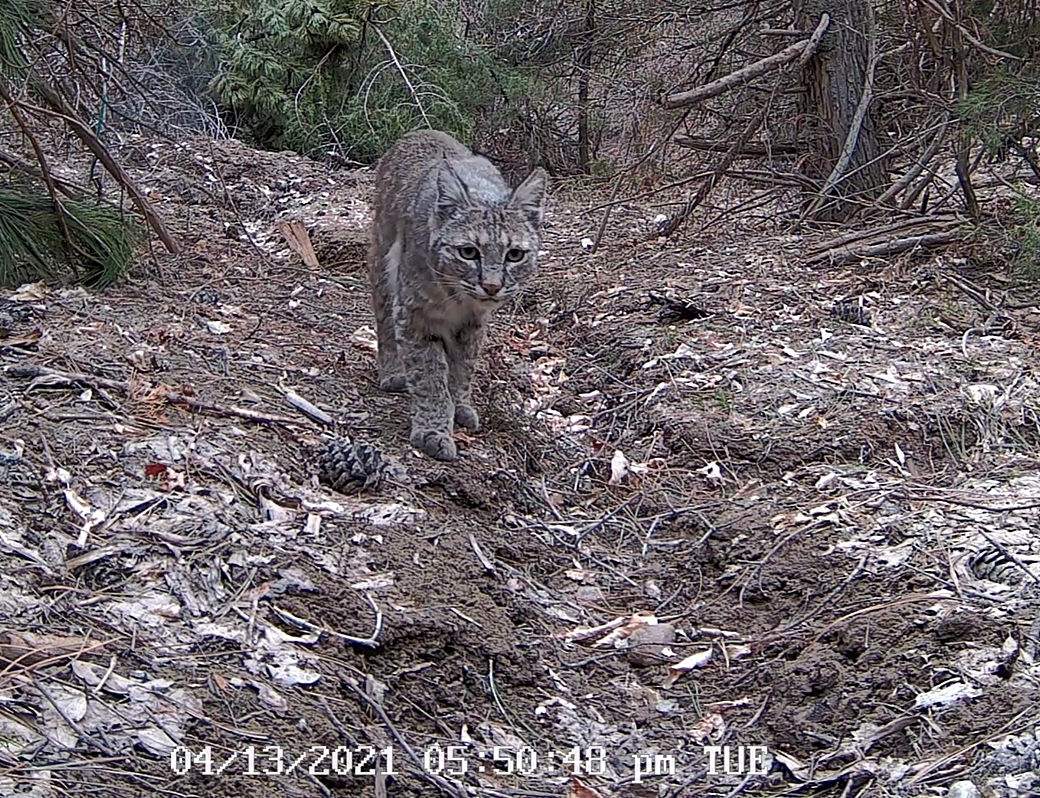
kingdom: Animalia
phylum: Chordata
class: Mammalia
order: Carnivora
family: Felidae
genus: Lynx
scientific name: Lynx rufus
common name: Bobcat
